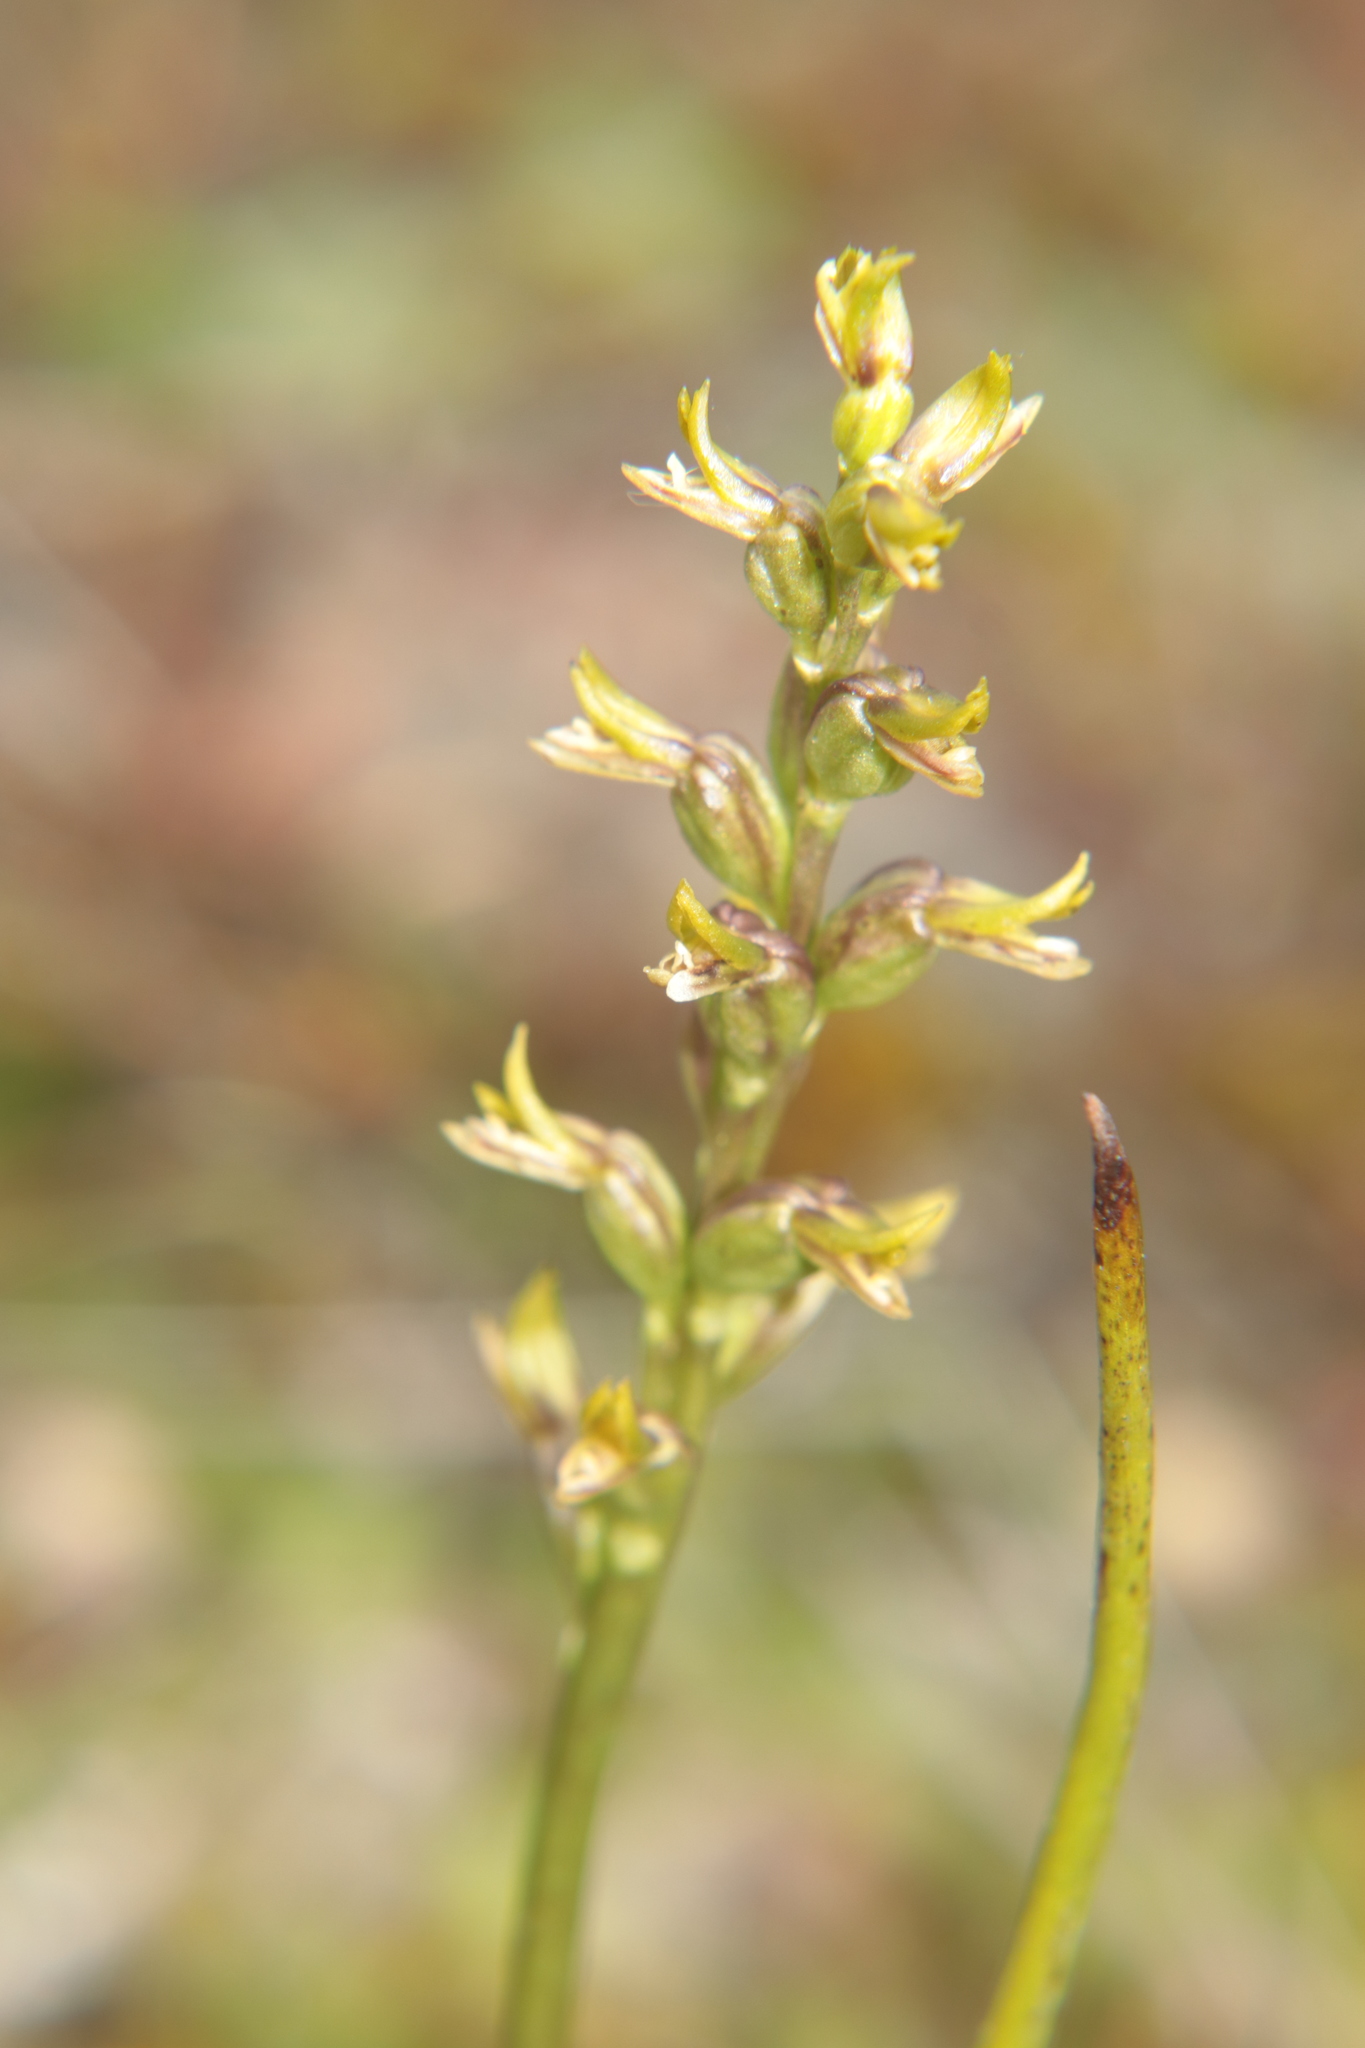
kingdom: Plantae
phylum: Tracheophyta
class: Liliopsida
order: Asparagales
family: Orchidaceae
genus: Prasophyllum
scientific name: Prasophyllum colensoi
